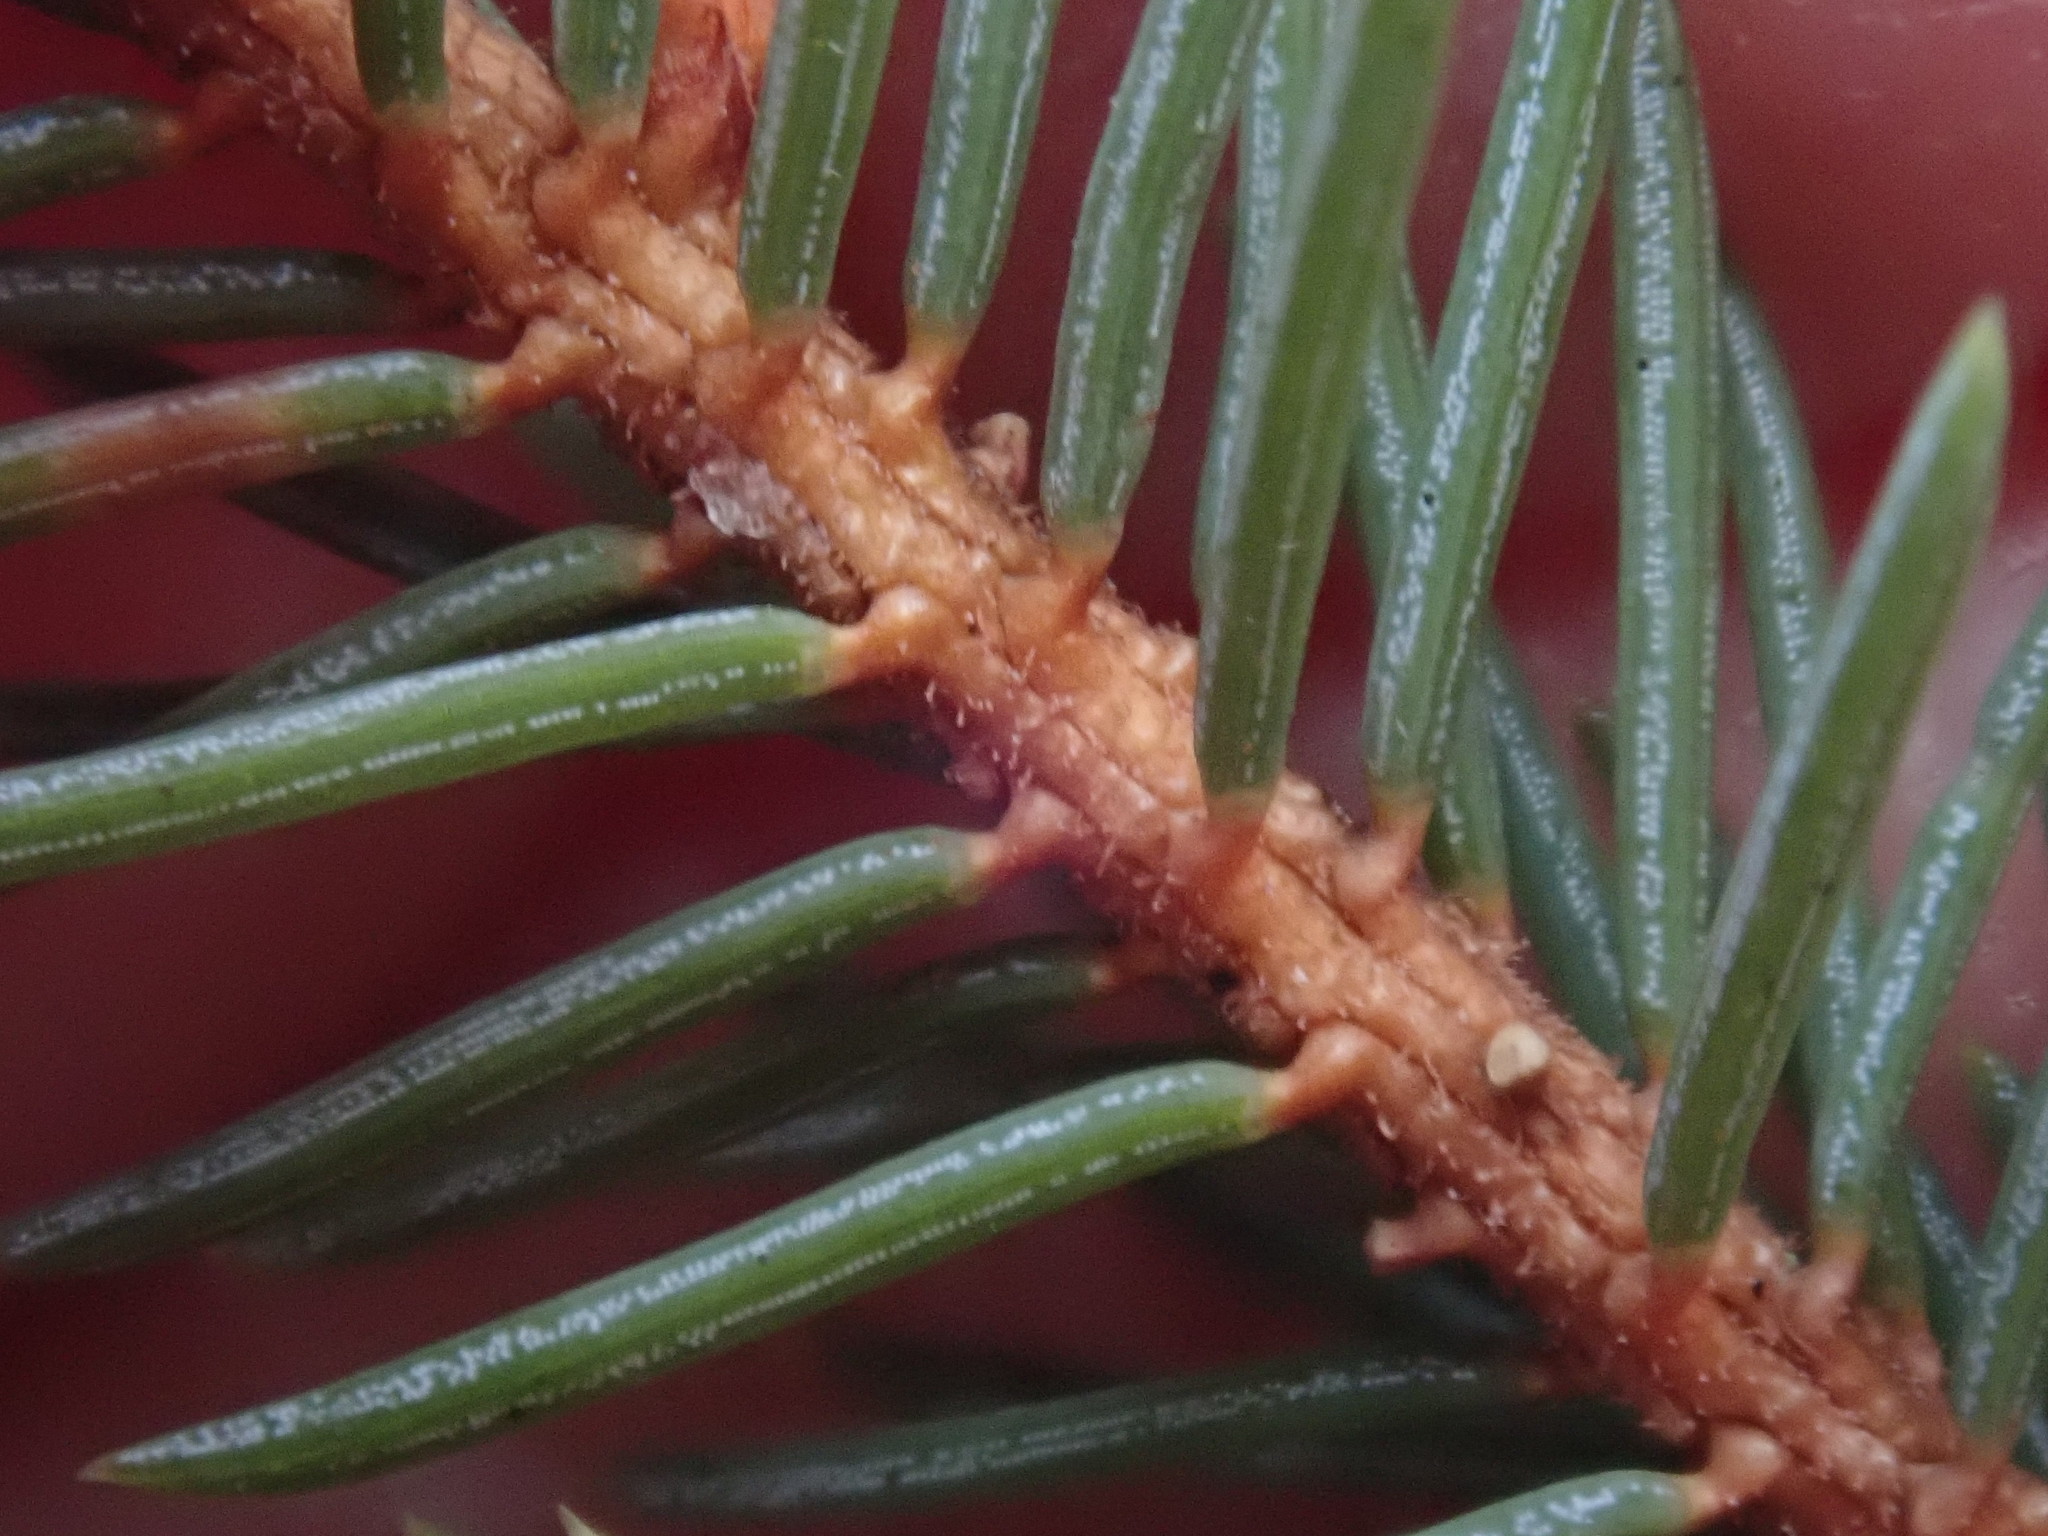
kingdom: Plantae
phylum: Tracheophyta
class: Pinopsida
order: Pinales
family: Pinaceae
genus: Picea
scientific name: Picea mariana
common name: Black spruce
